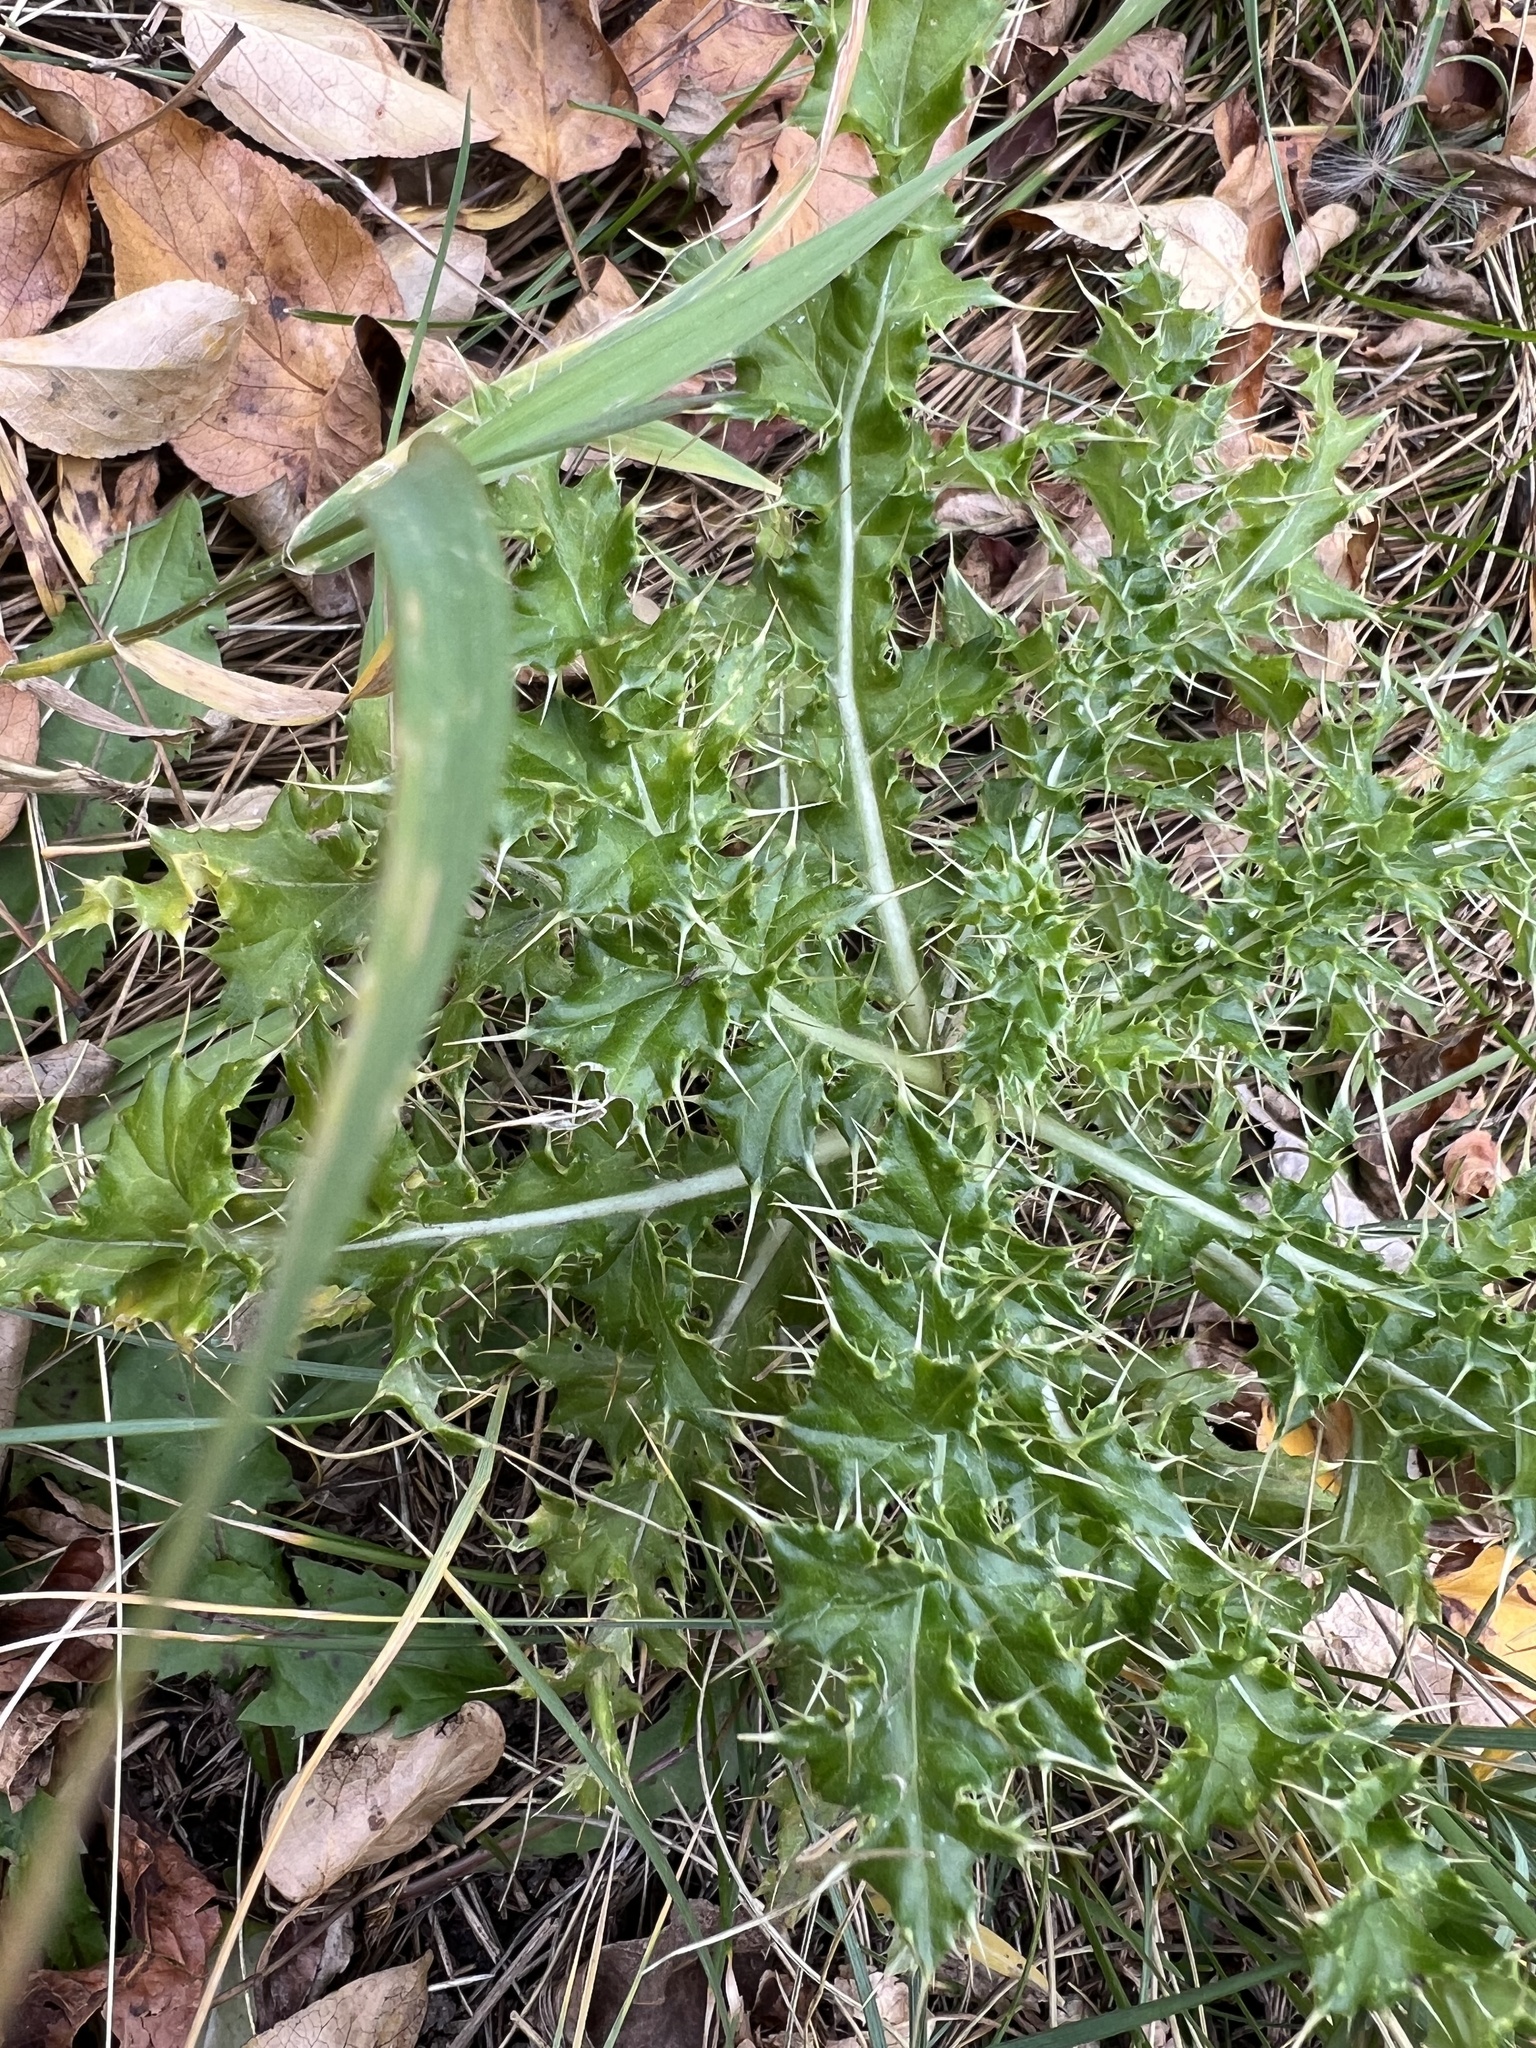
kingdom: Plantae
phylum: Tracheophyta
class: Magnoliopsida
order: Asterales
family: Asteraceae
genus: Cirsium
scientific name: Cirsium arvense
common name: Creeping thistle
